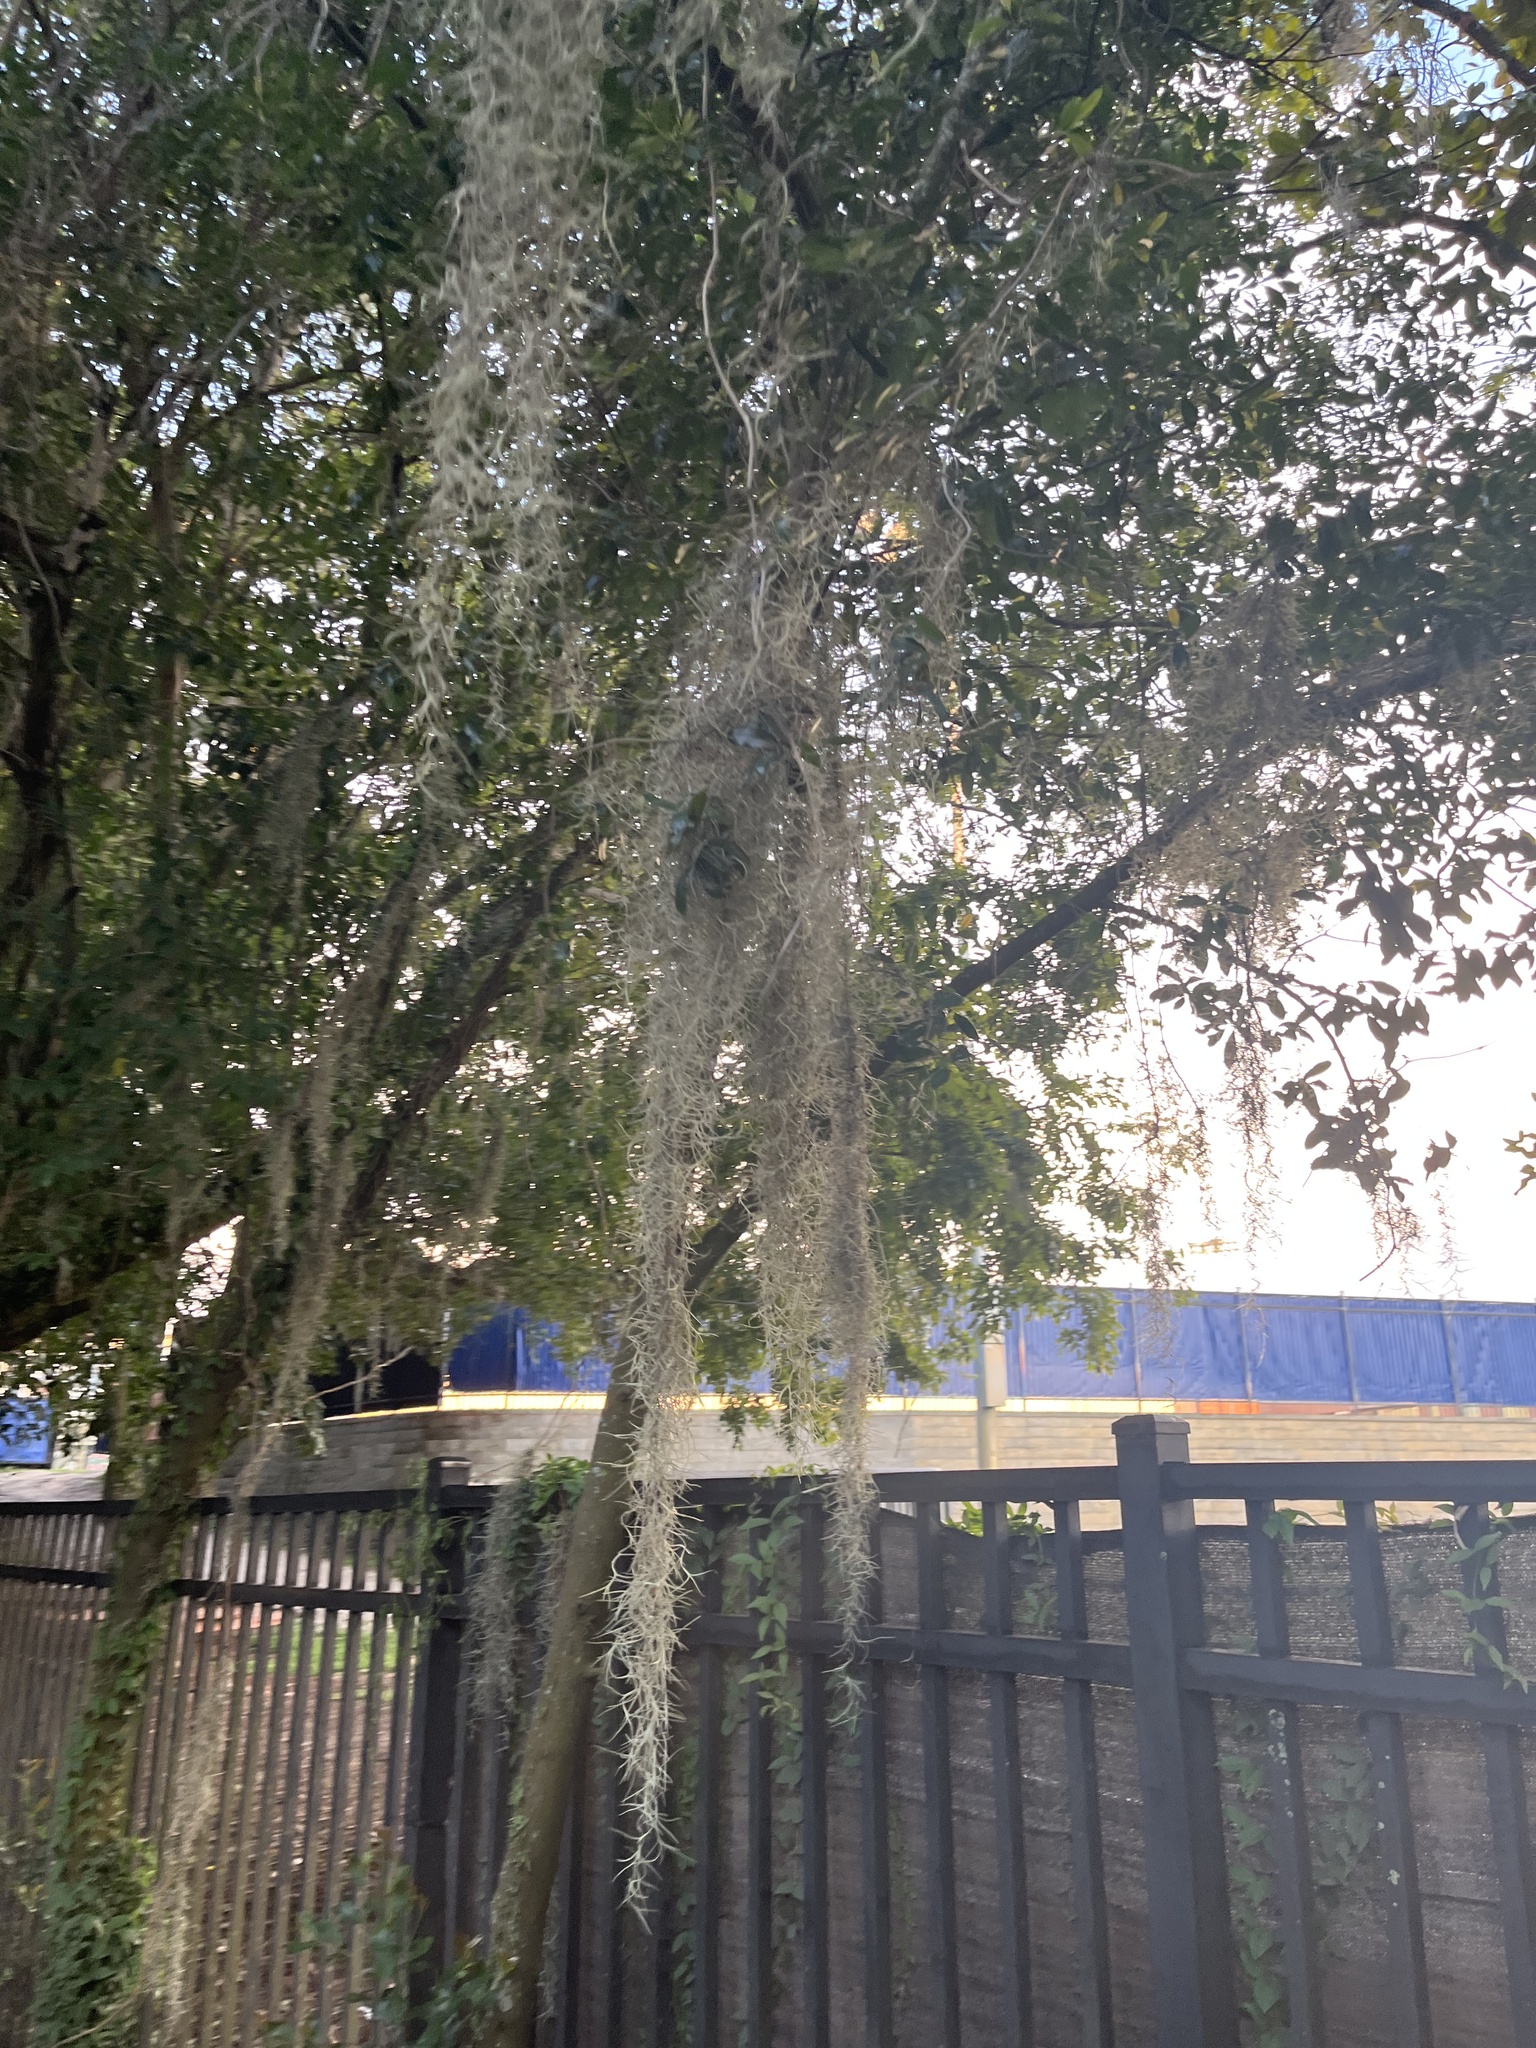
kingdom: Plantae
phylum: Tracheophyta
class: Liliopsida
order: Poales
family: Bromeliaceae
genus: Tillandsia
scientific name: Tillandsia usneoides
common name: Spanish moss
